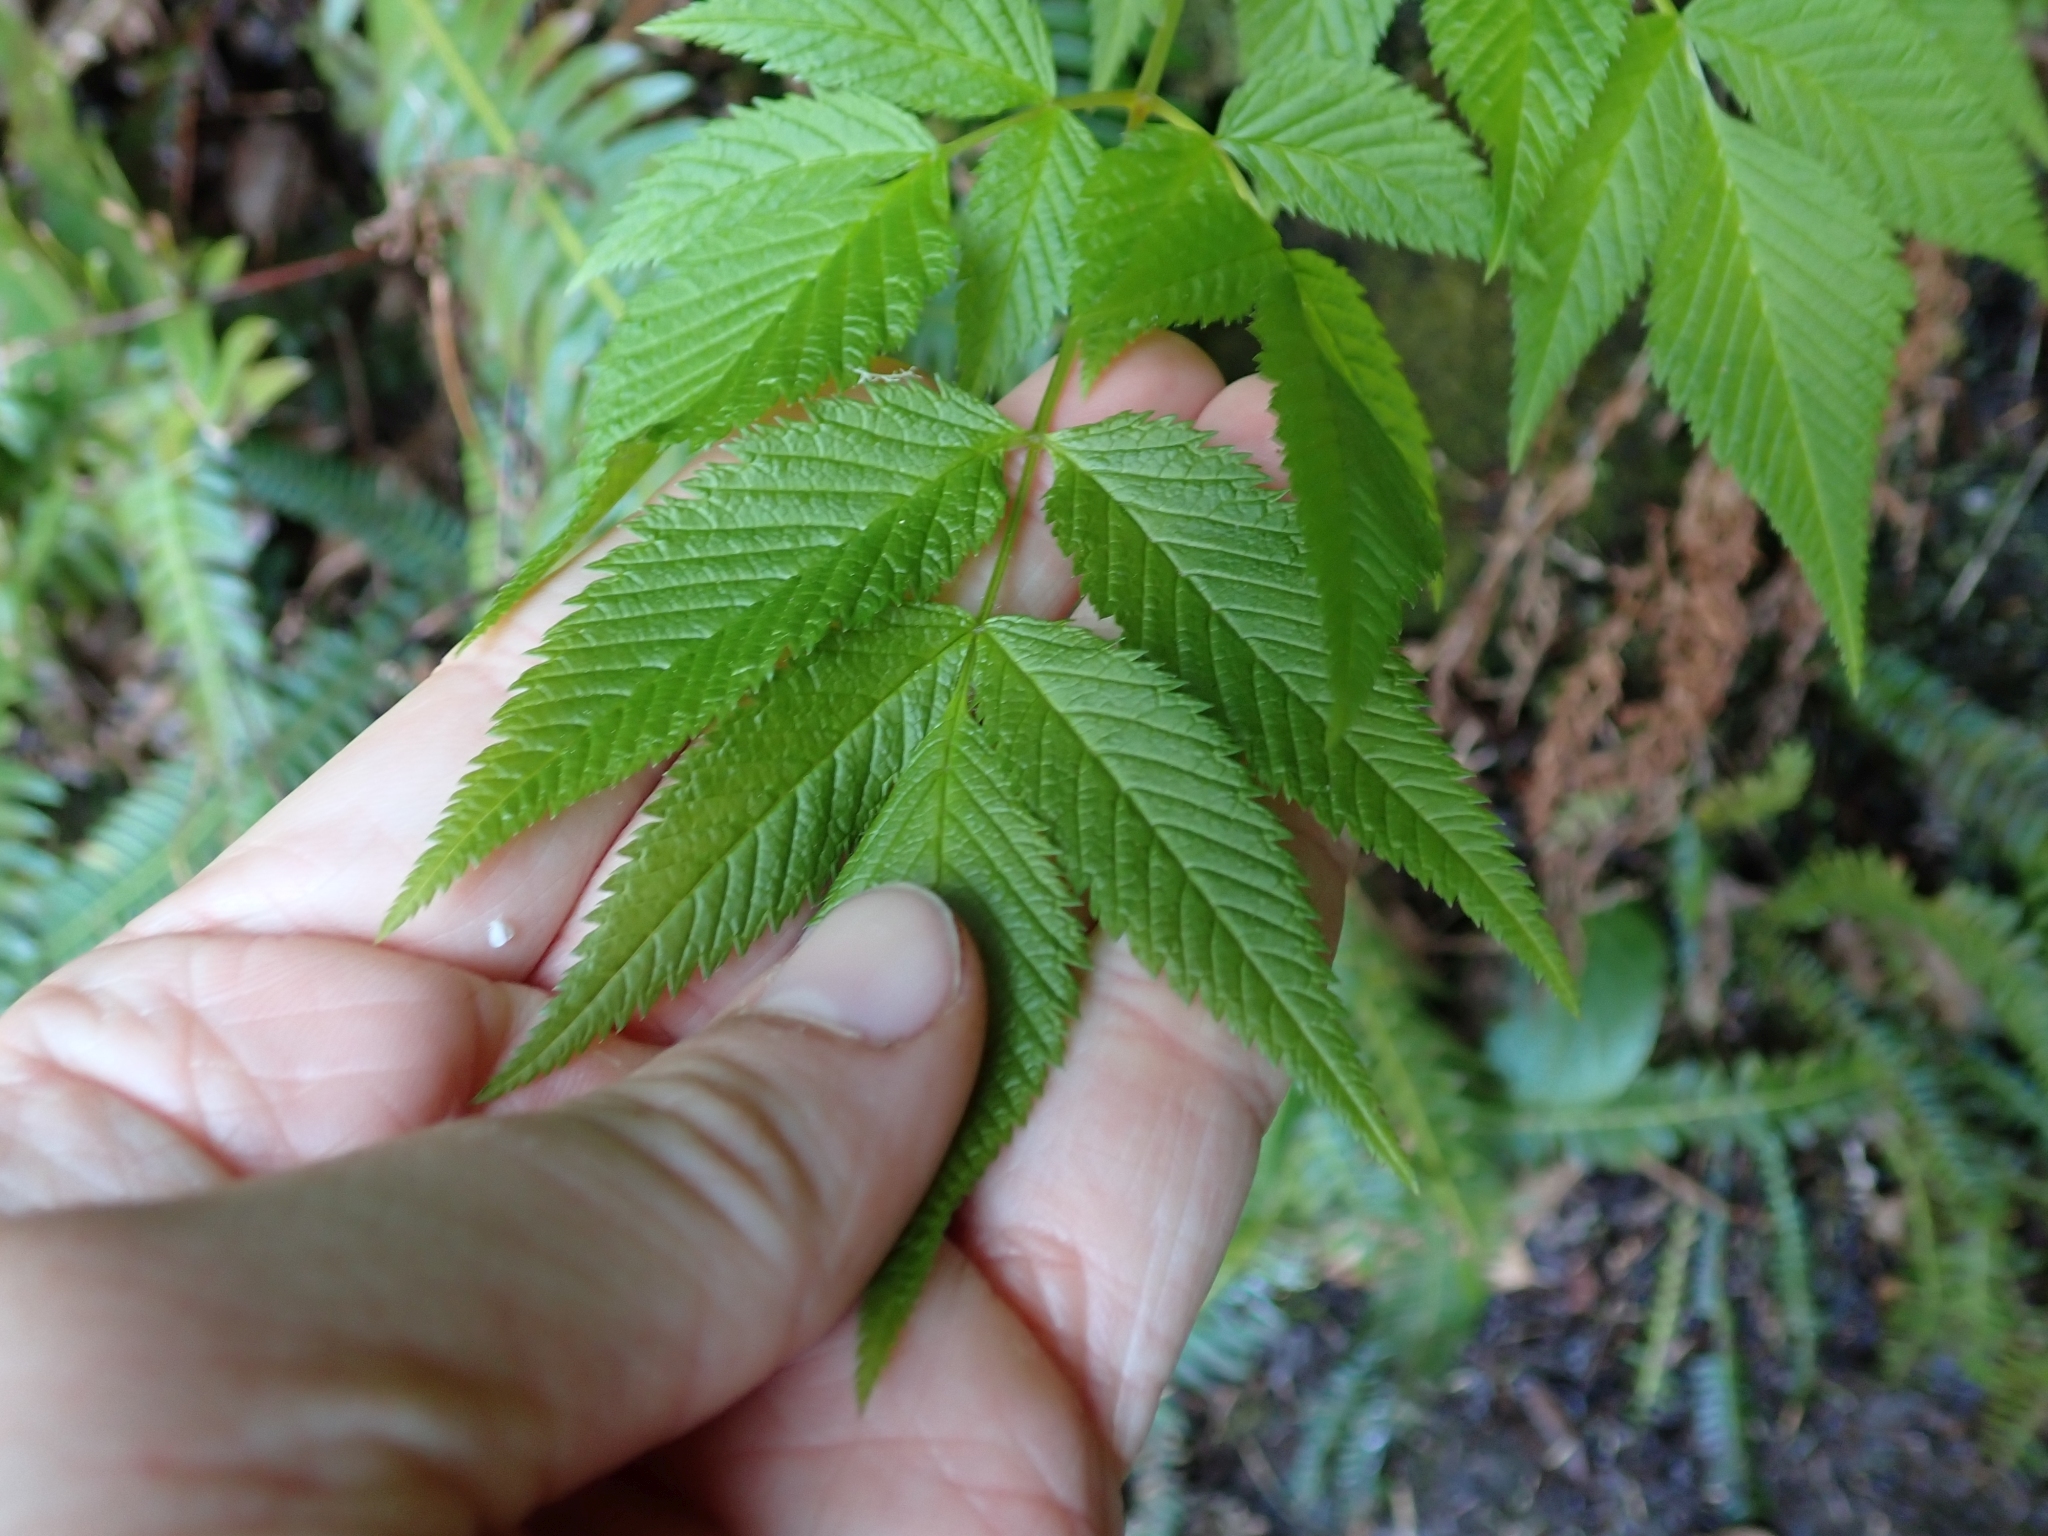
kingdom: Plantae
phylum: Tracheophyta
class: Magnoliopsida
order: Rosales
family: Rosaceae
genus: Aruncus
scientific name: Aruncus dioicus
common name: Buck's-beard
